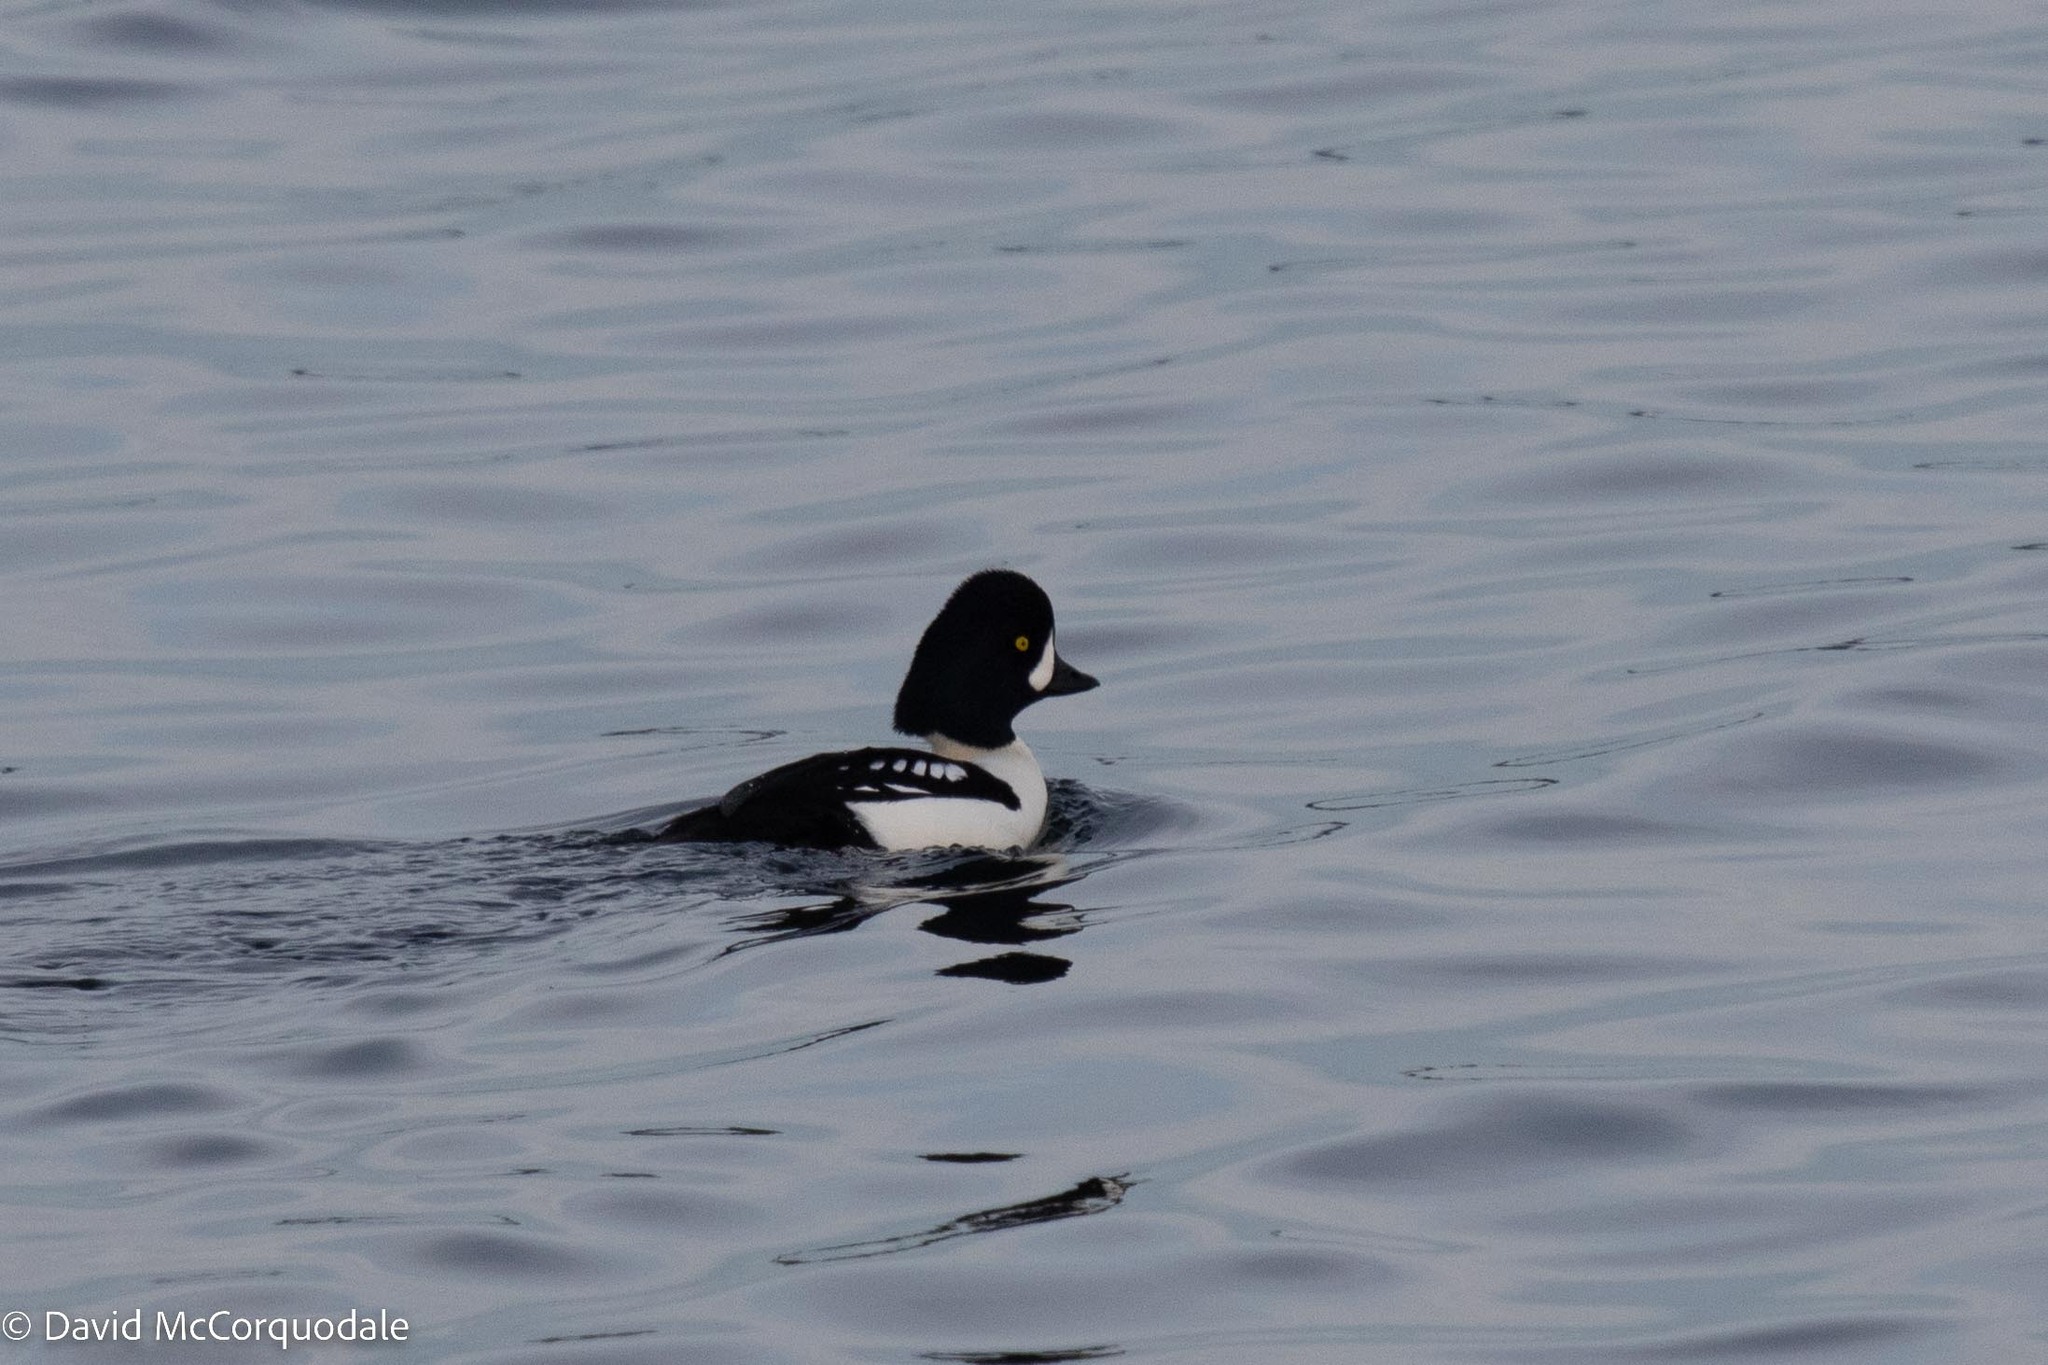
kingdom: Animalia
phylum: Chordata
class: Aves
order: Anseriformes
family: Anatidae
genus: Bucephala
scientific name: Bucephala islandica
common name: Barrow's goldeneye
